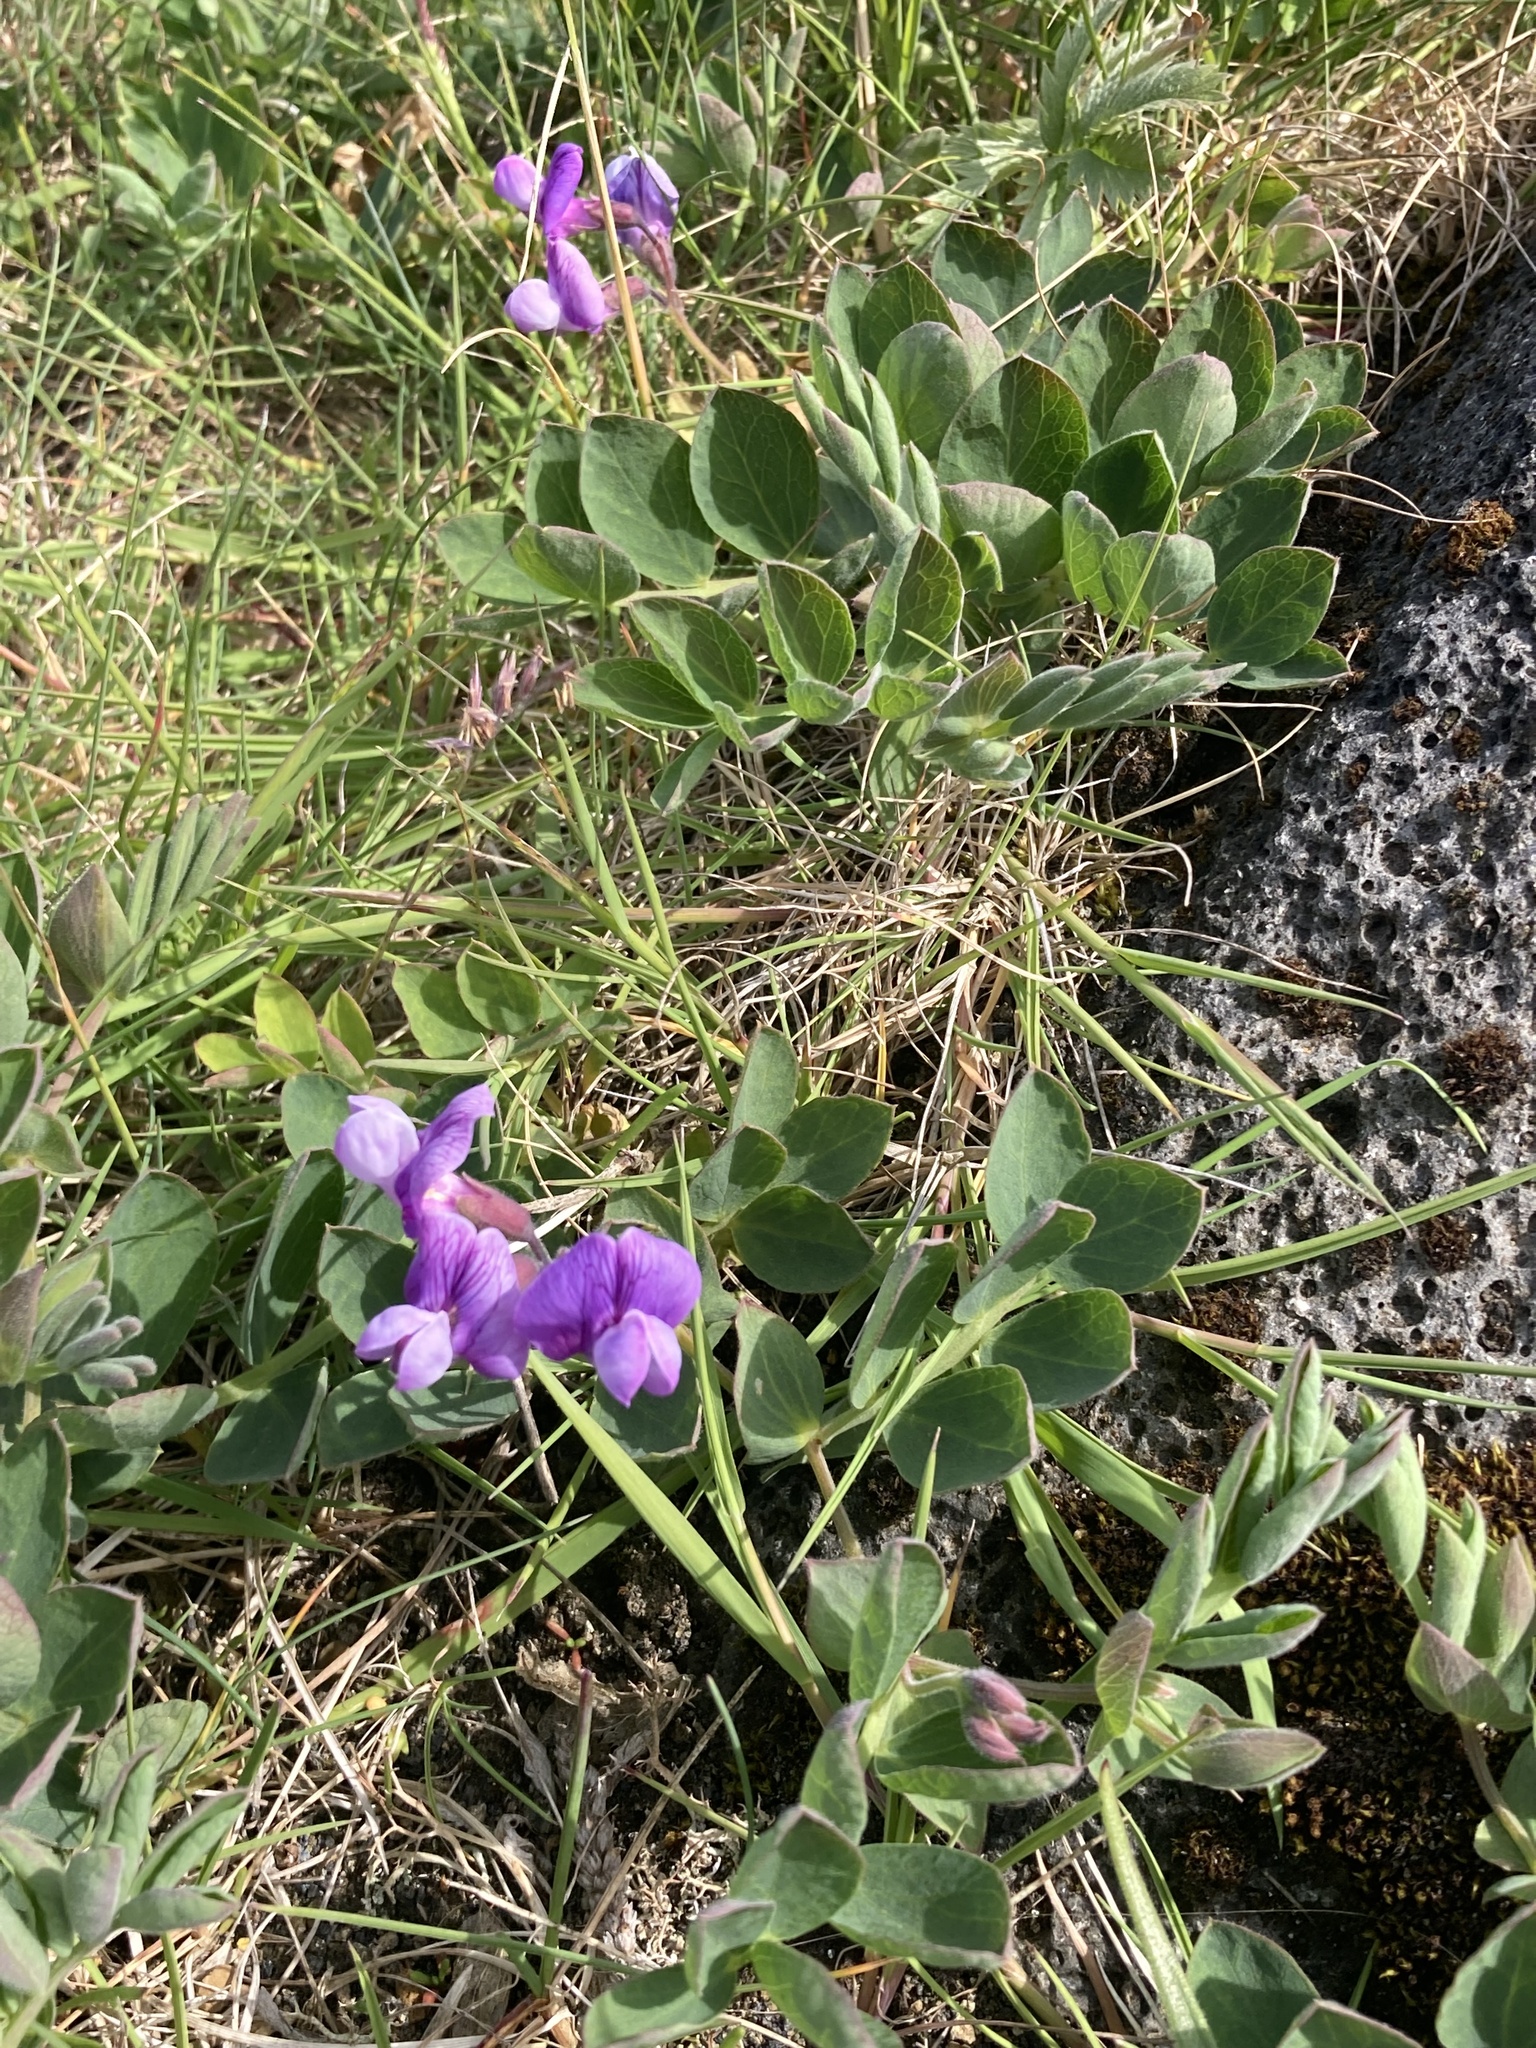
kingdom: Plantae
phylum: Tracheophyta
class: Magnoliopsida
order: Fabales
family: Fabaceae
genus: Lathyrus
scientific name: Lathyrus japonicus
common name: Sea pea
